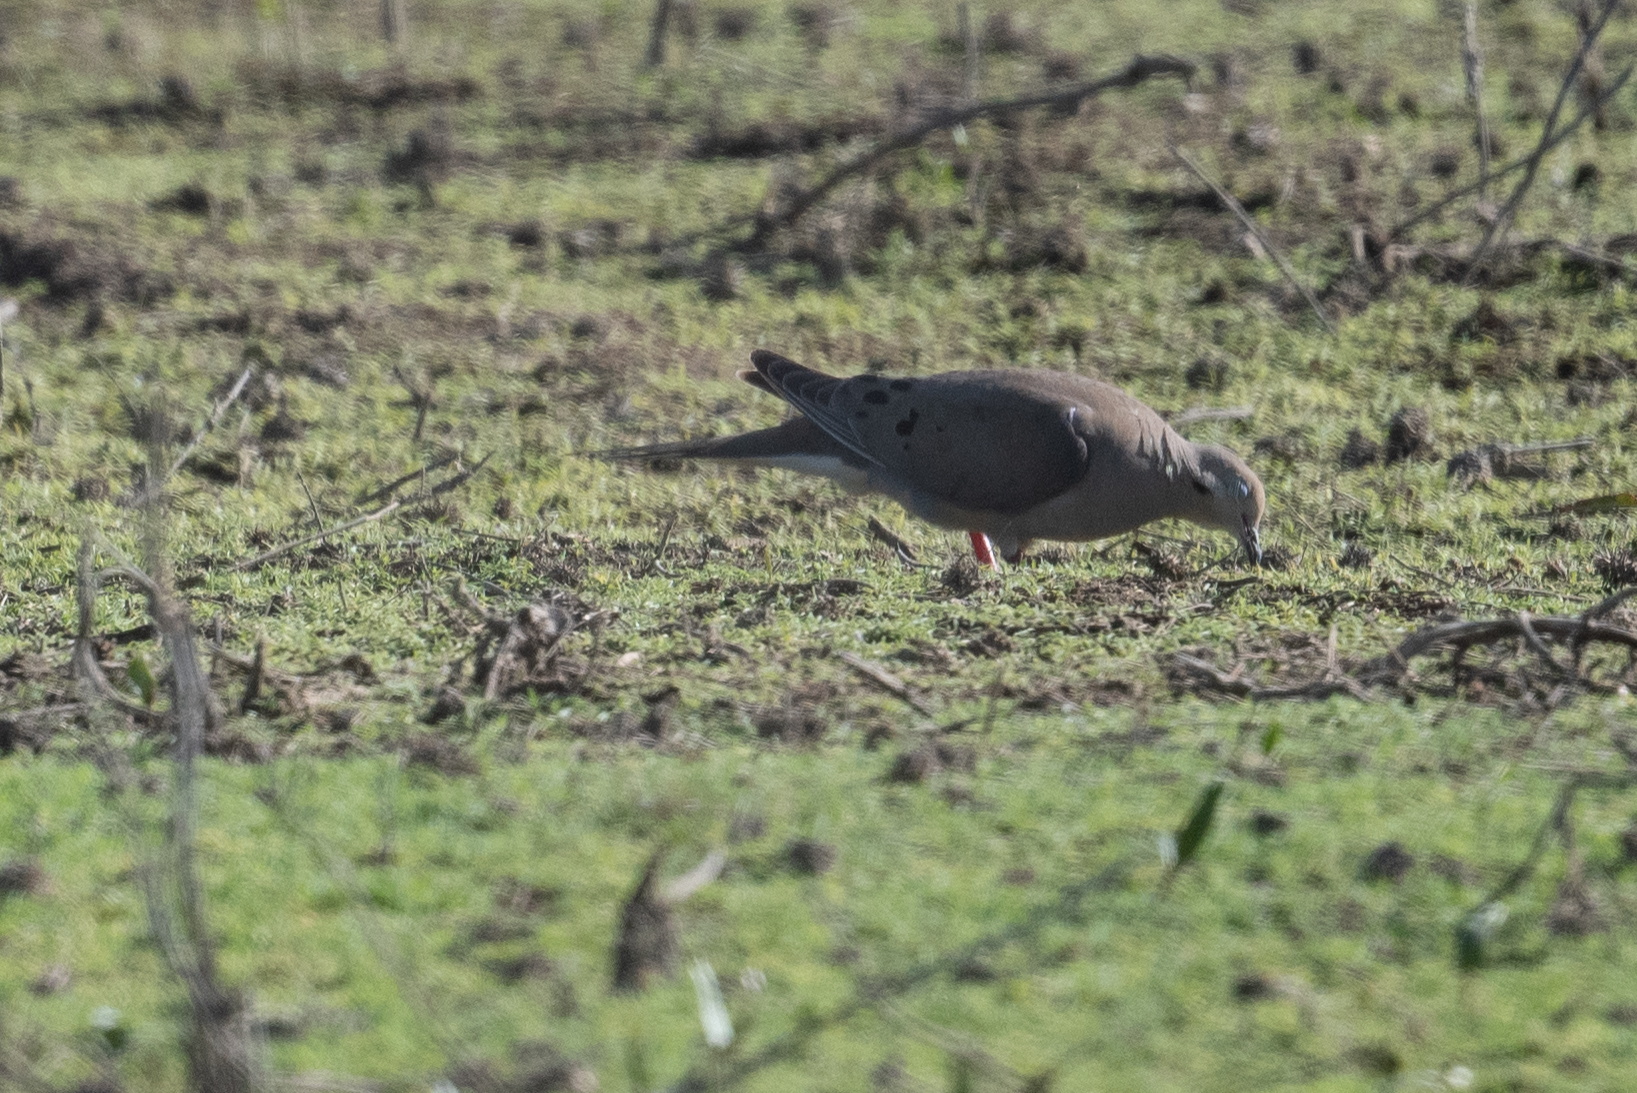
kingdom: Animalia
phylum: Chordata
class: Aves
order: Columbiformes
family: Columbidae
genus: Zenaida
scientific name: Zenaida macroura
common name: Mourning dove
